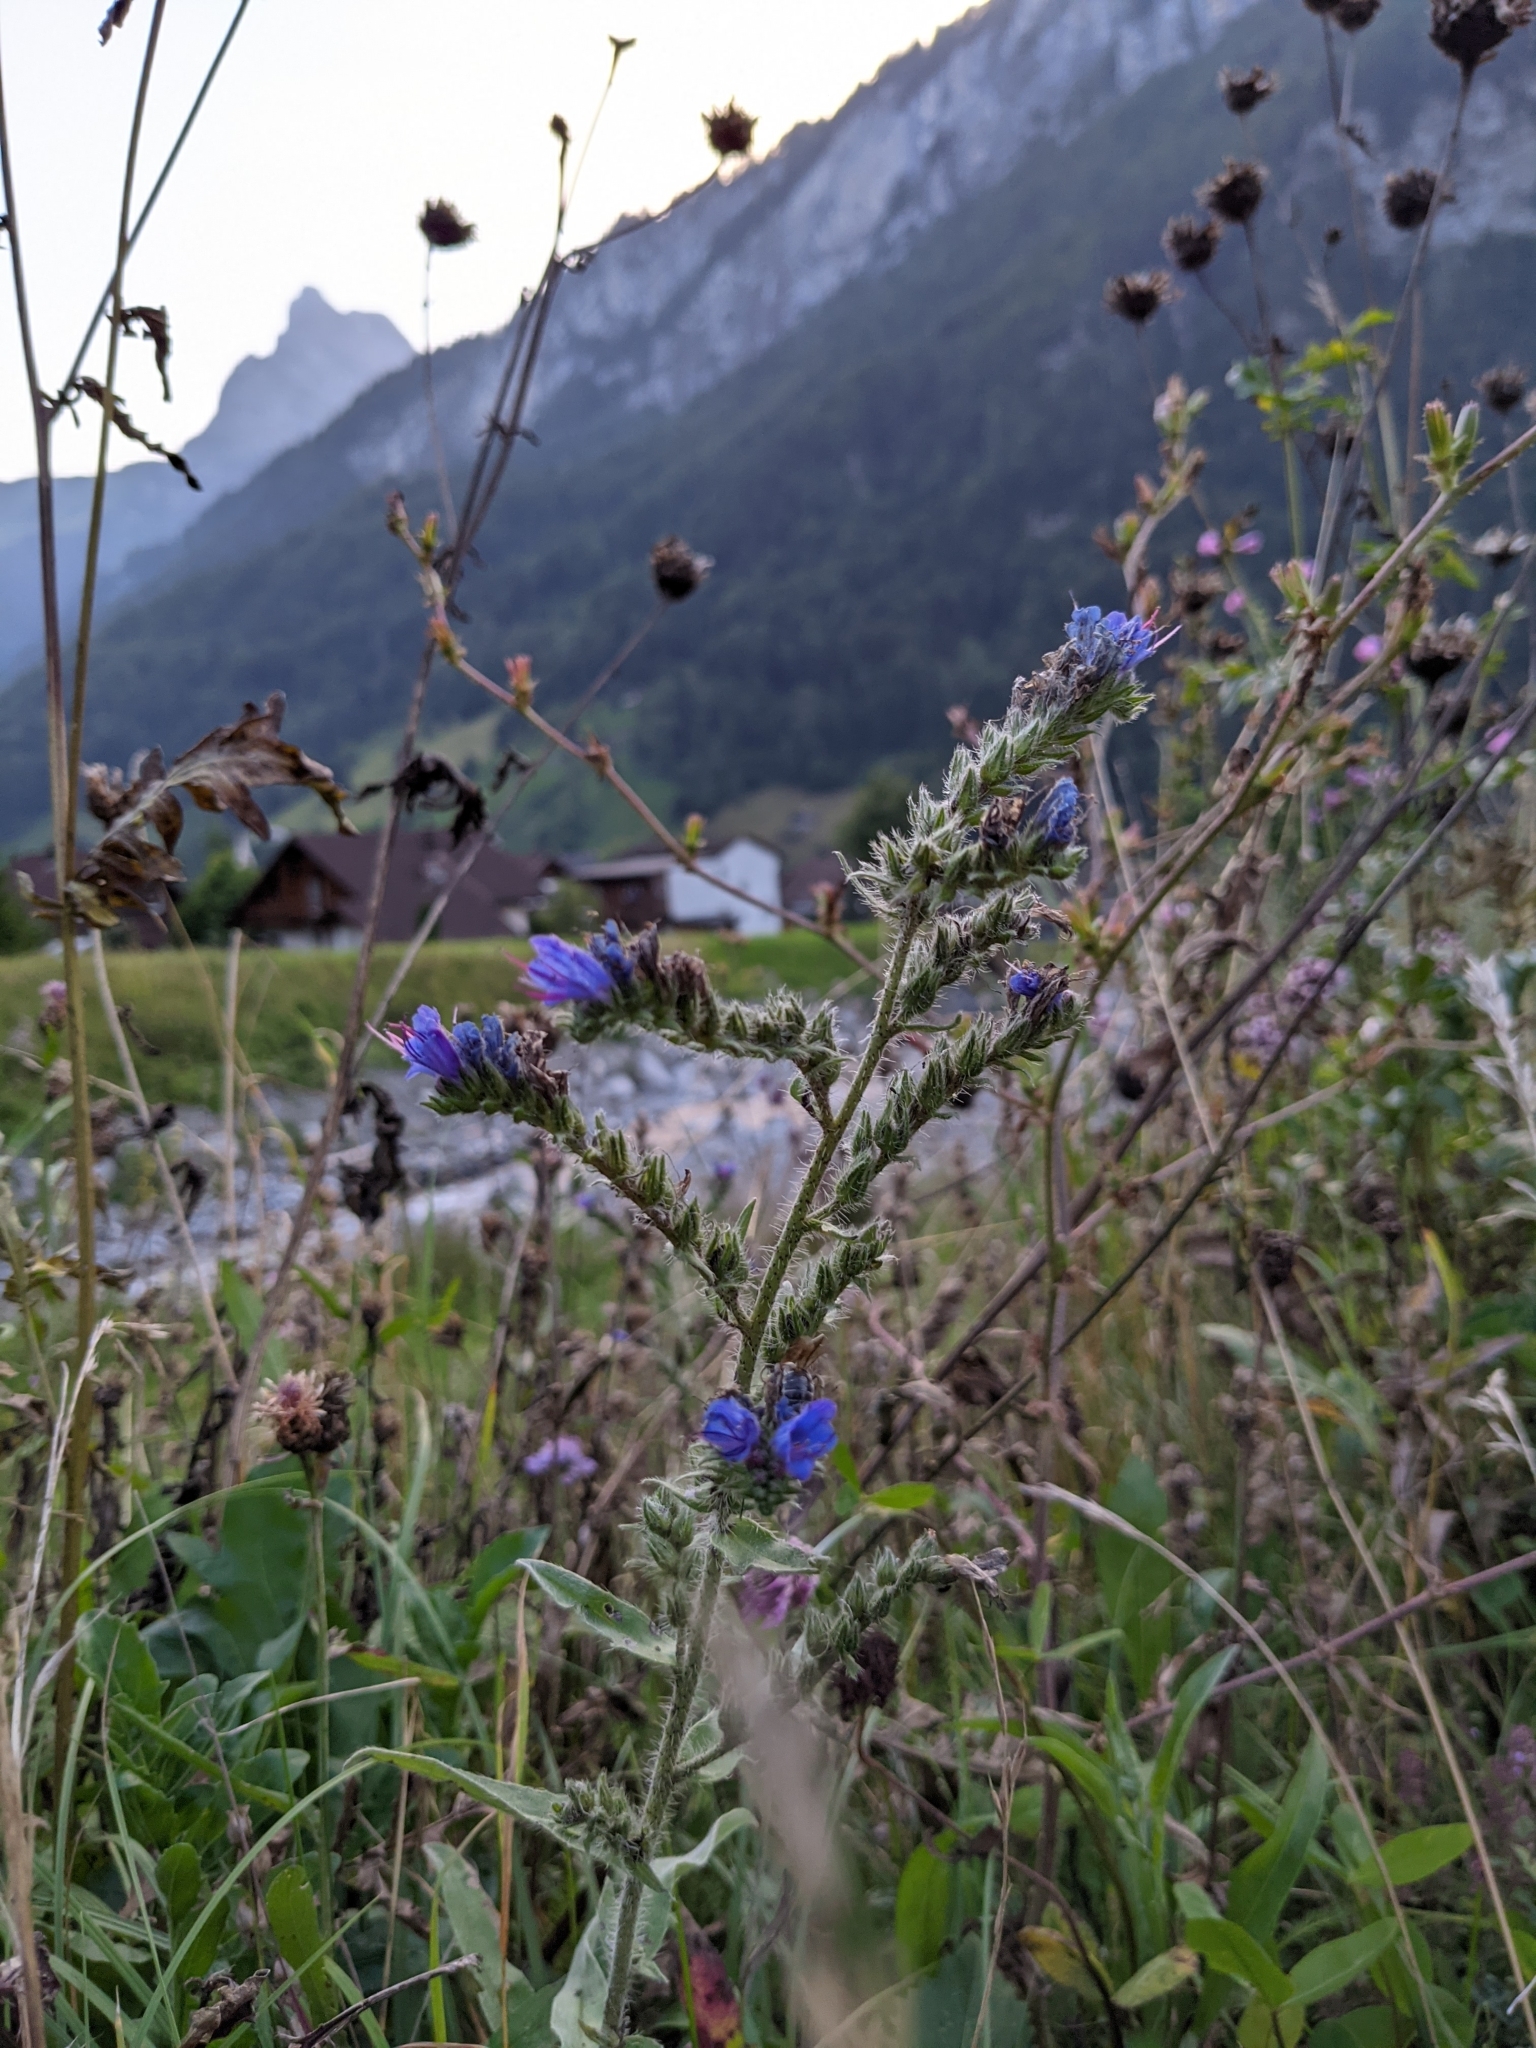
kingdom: Plantae
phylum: Tracheophyta
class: Magnoliopsida
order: Boraginales
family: Boraginaceae
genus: Echium
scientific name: Echium vulgare
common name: Common viper's bugloss
